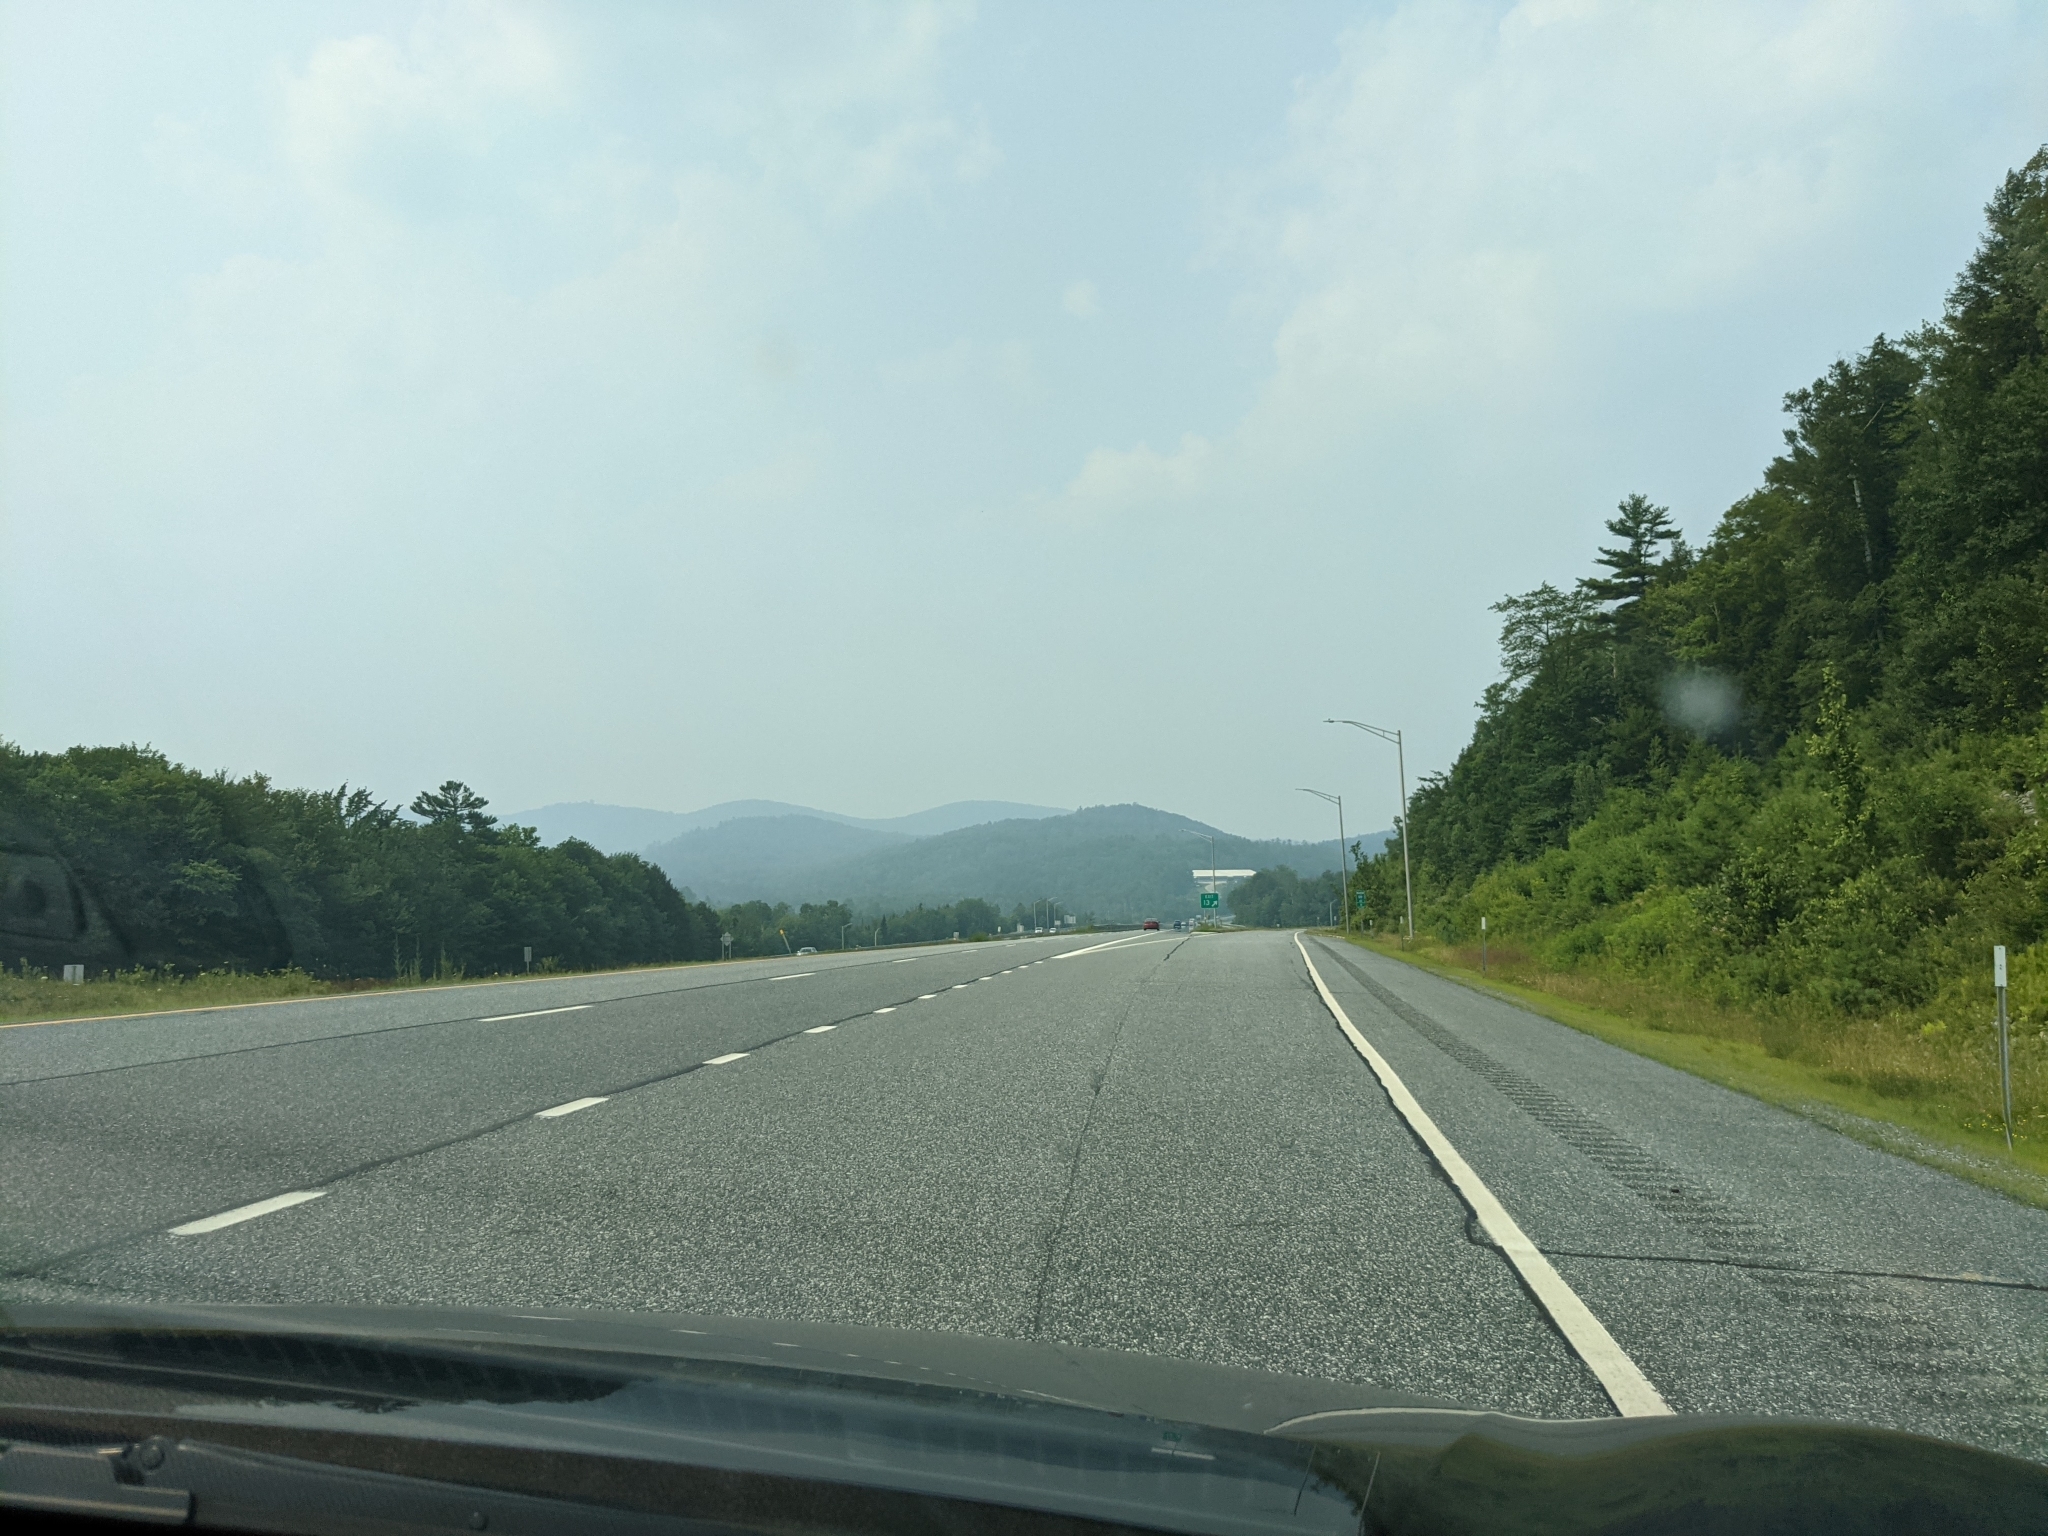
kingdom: Plantae
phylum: Tracheophyta
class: Pinopsida
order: Pinales
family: Pinaceae
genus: Pinus
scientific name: Pinus strobus
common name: Weymouth pine
